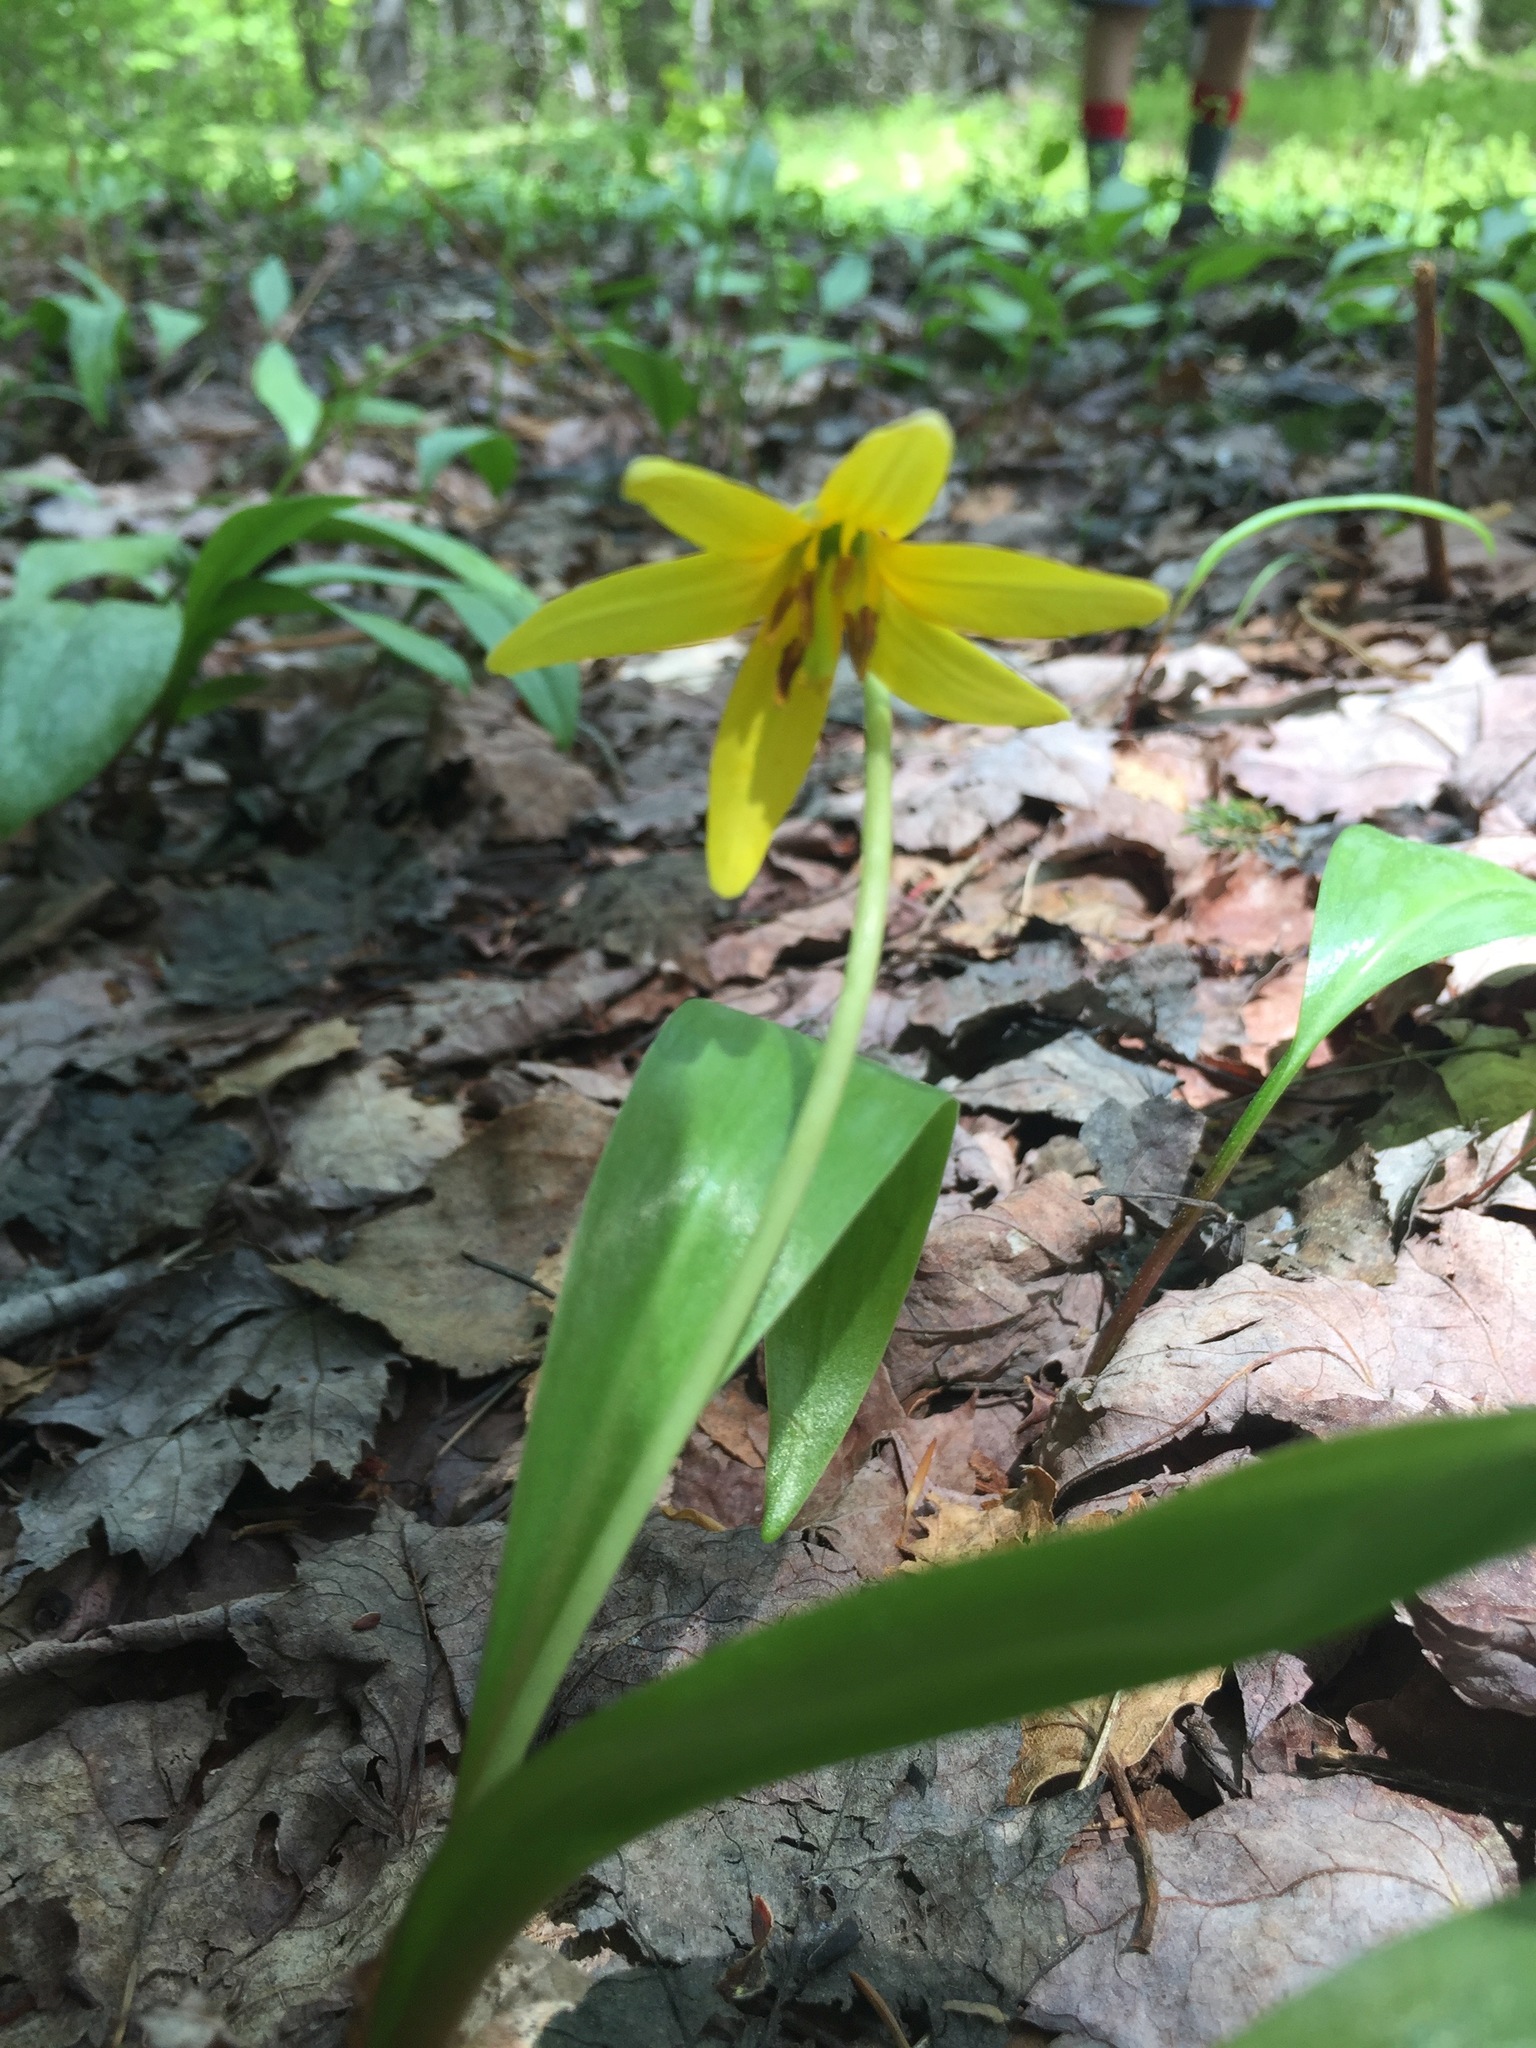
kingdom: Plantae
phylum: Tracheophyta
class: Liliopsida
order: Liliales
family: Liliaceae
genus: Erythronium
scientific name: Erythronium americanum
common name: Yellow adder's-tongue
